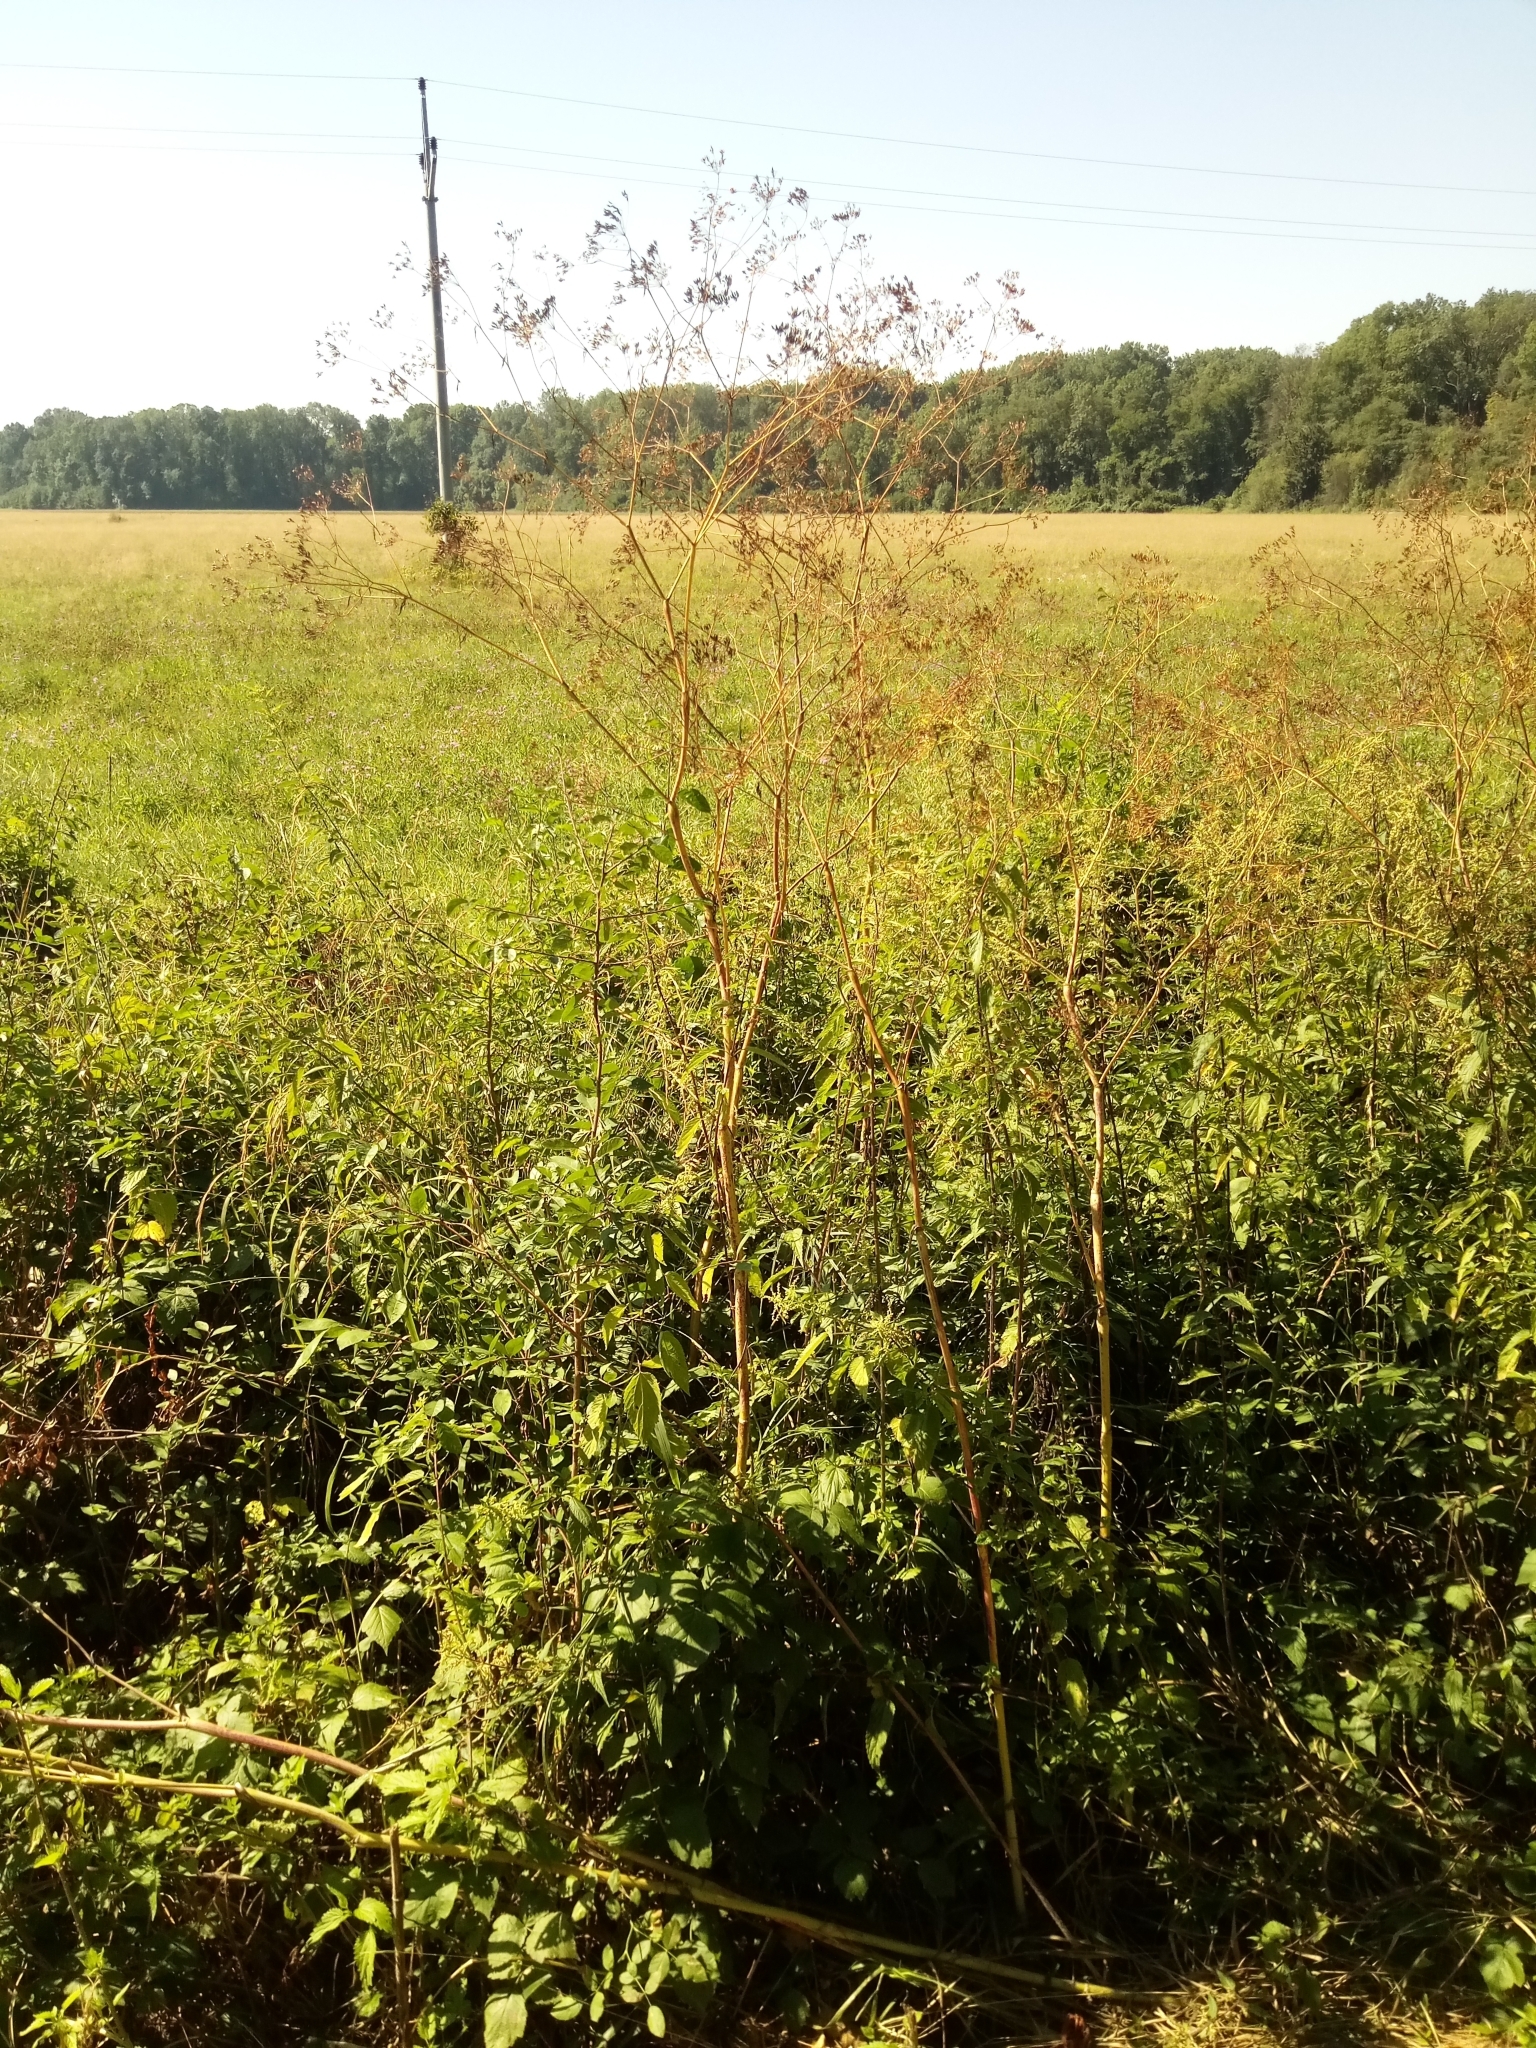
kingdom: Plantae
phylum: Tracheophyta
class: Magnoliopsida
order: Apiales
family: Apiaceae
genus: Chaerophyllum
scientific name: Chaerophyllum bulbosum
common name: Bulbous chervil
